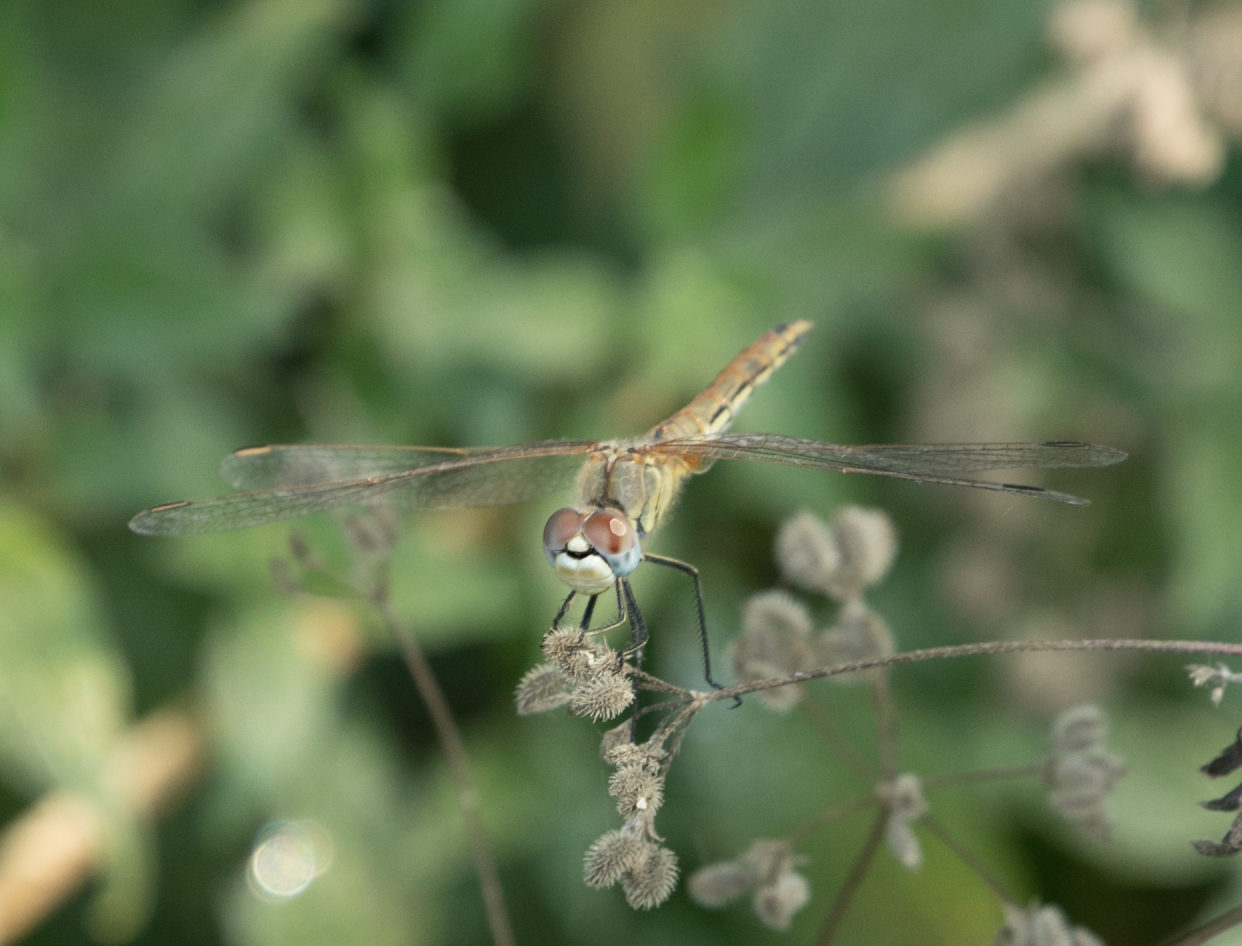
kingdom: Animalia
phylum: Arthropoda
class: Insecta
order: Odonata
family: Libellulidae
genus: Sympetrum
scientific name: Sympetrum fonscolombii
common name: Red-veined darter
